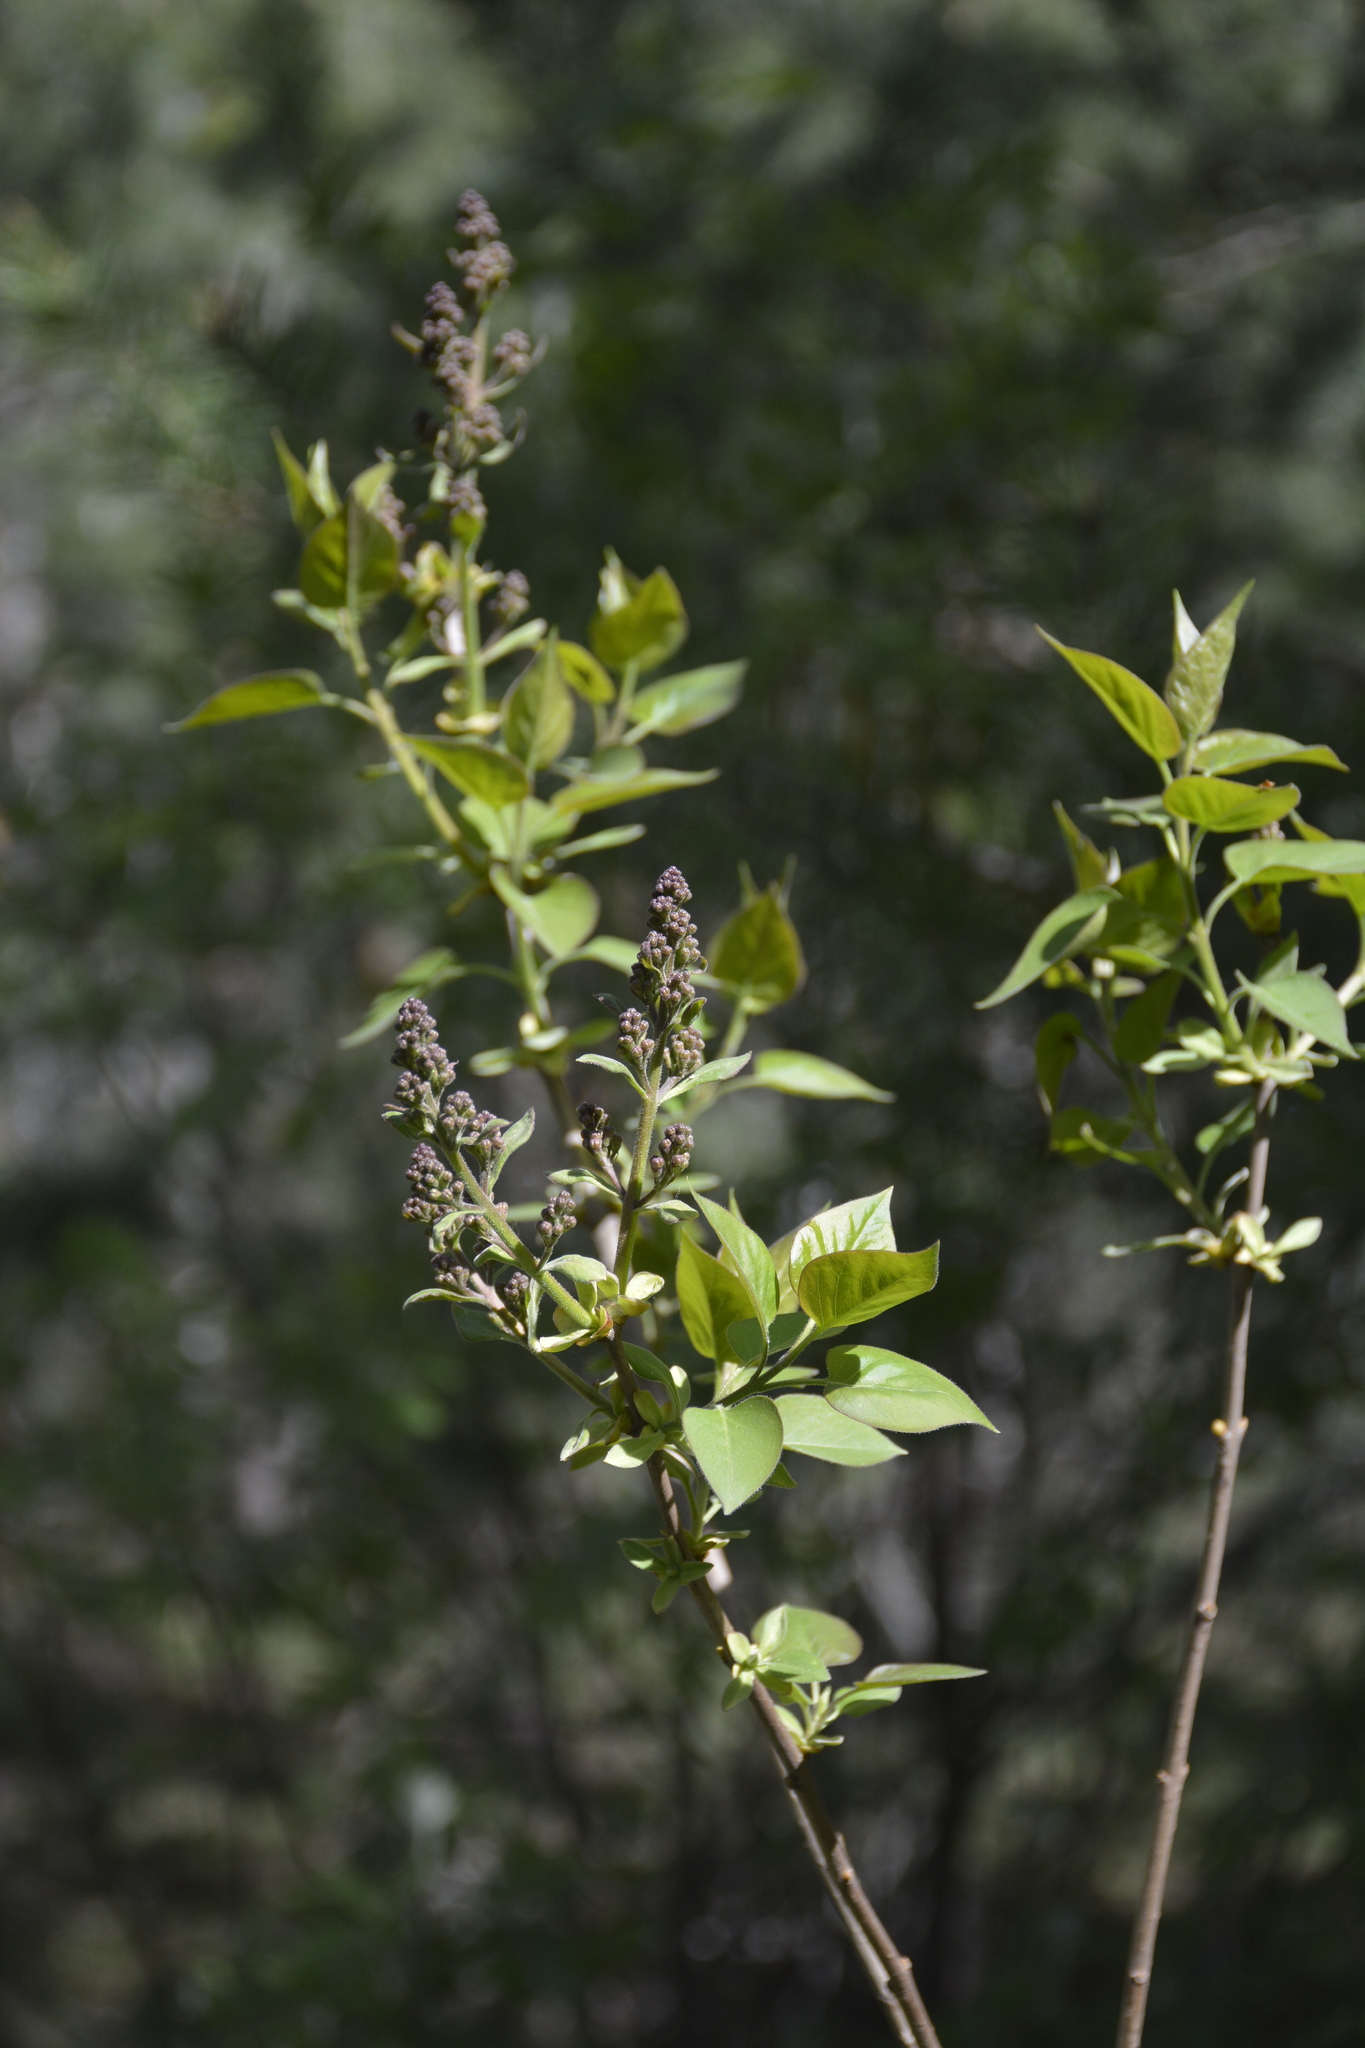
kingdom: Plantae
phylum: Tracheophyta
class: Magnoliopsida
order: Lamiales
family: Oleaceae
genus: Syringa
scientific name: Syringa vulgaris
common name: Common lilac
